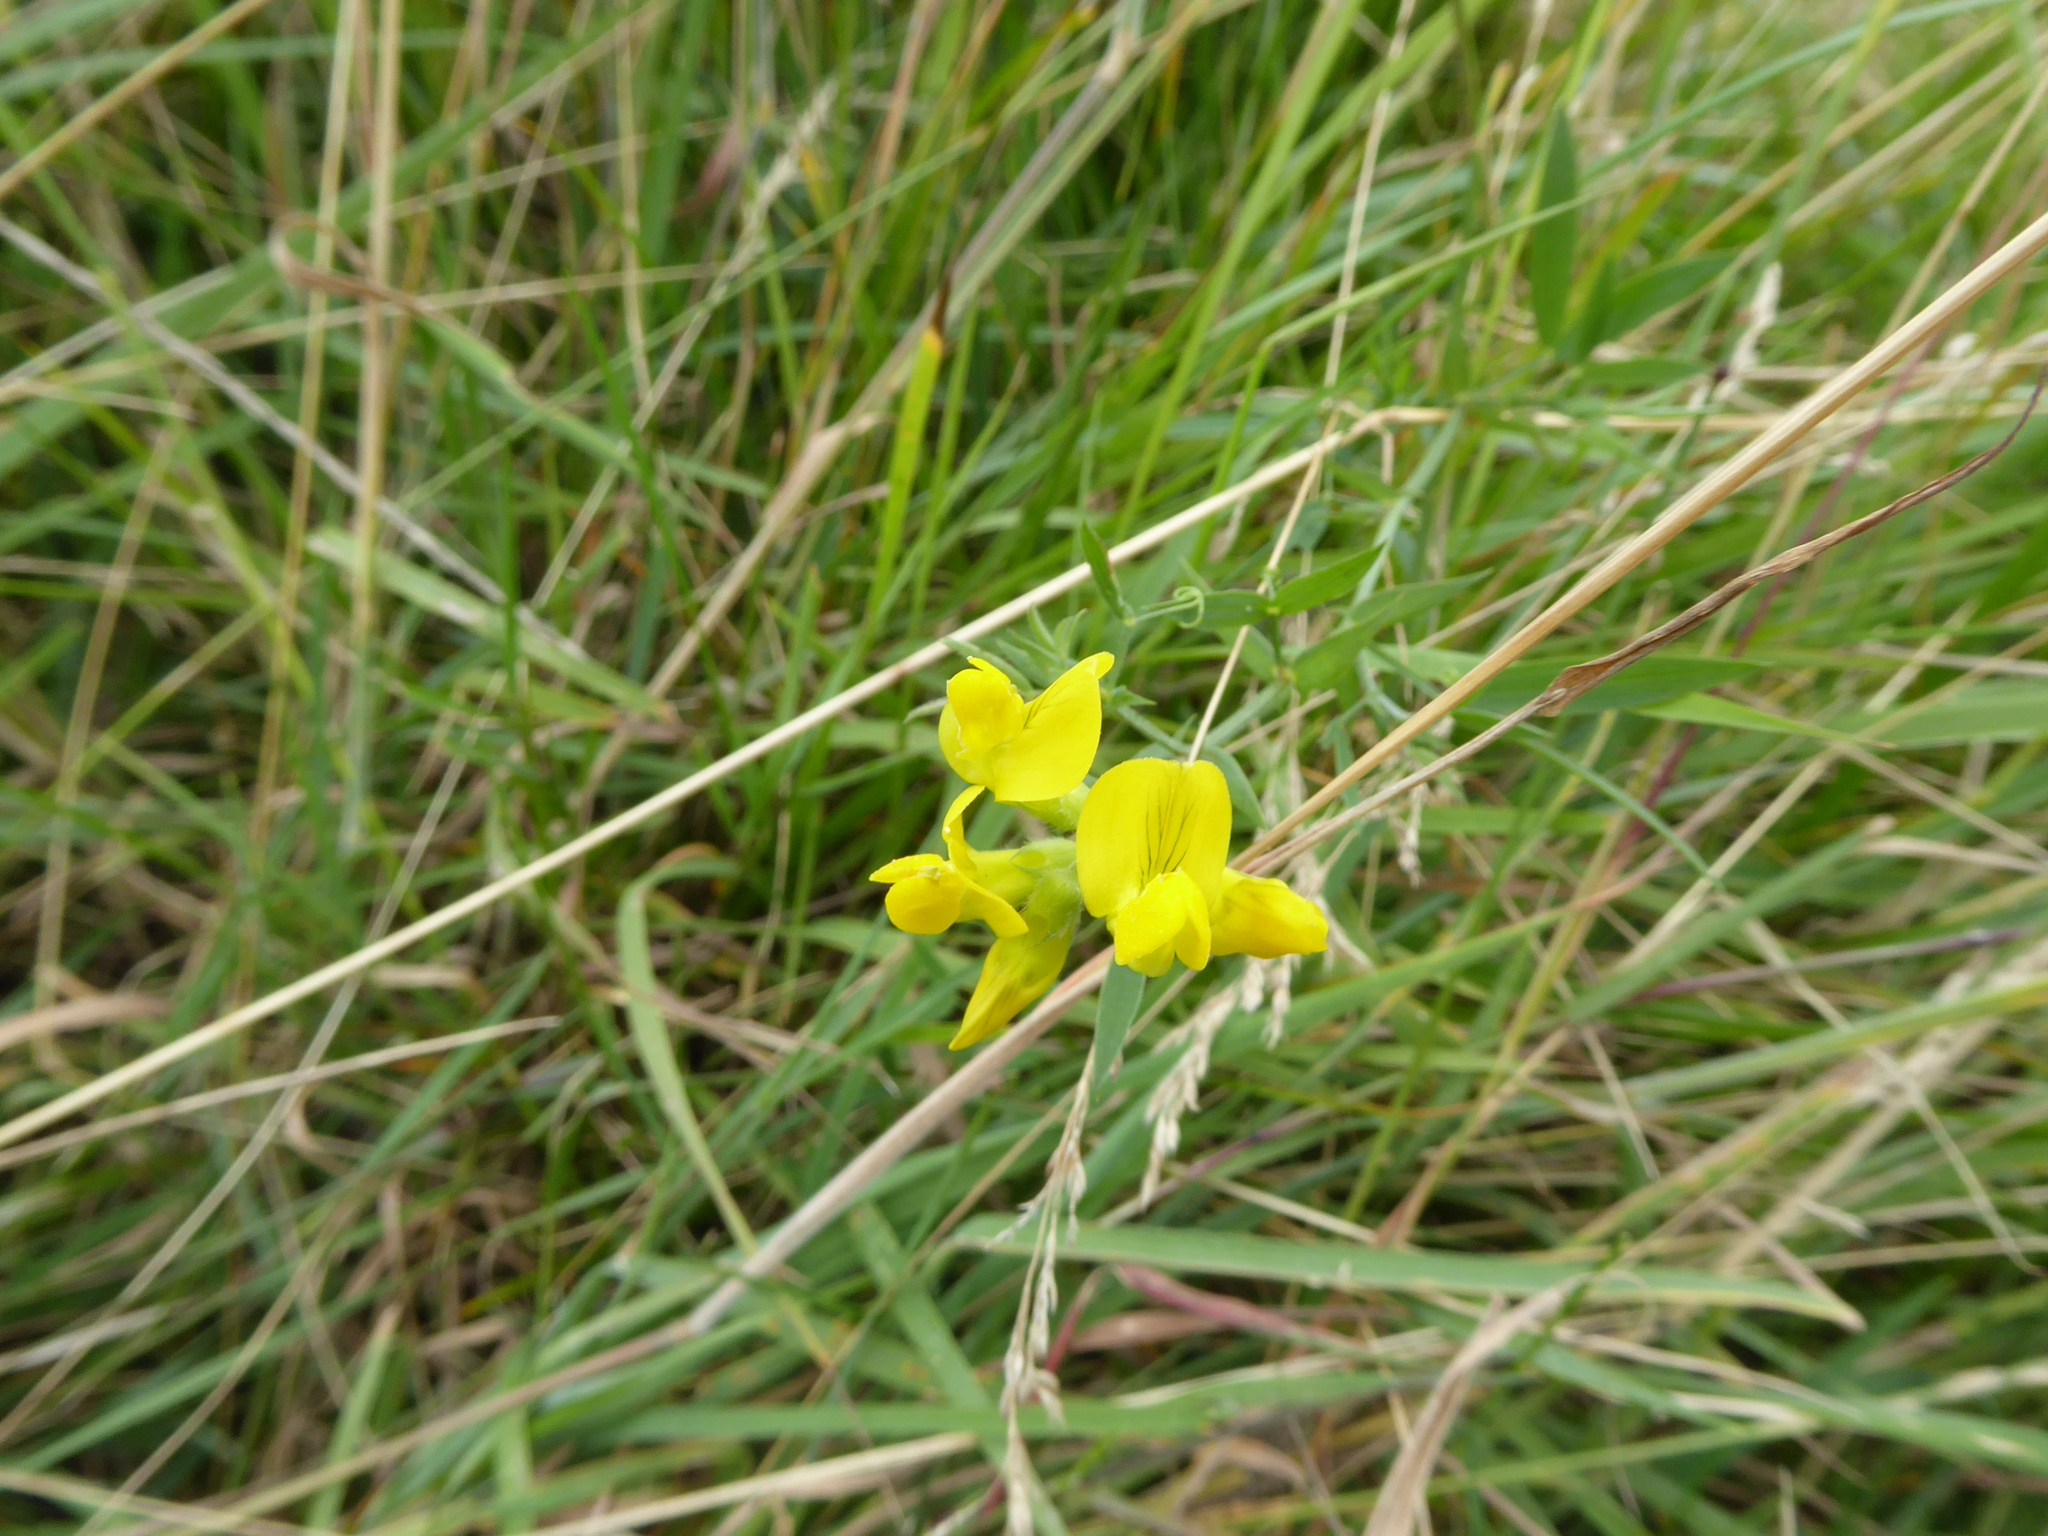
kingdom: Plantae
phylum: Tracheophyta
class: Magnoliopsida
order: Fabales
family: Fabaceae
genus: Lathyrus
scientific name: Lathyrus pratensis
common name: Meadow vetchling
